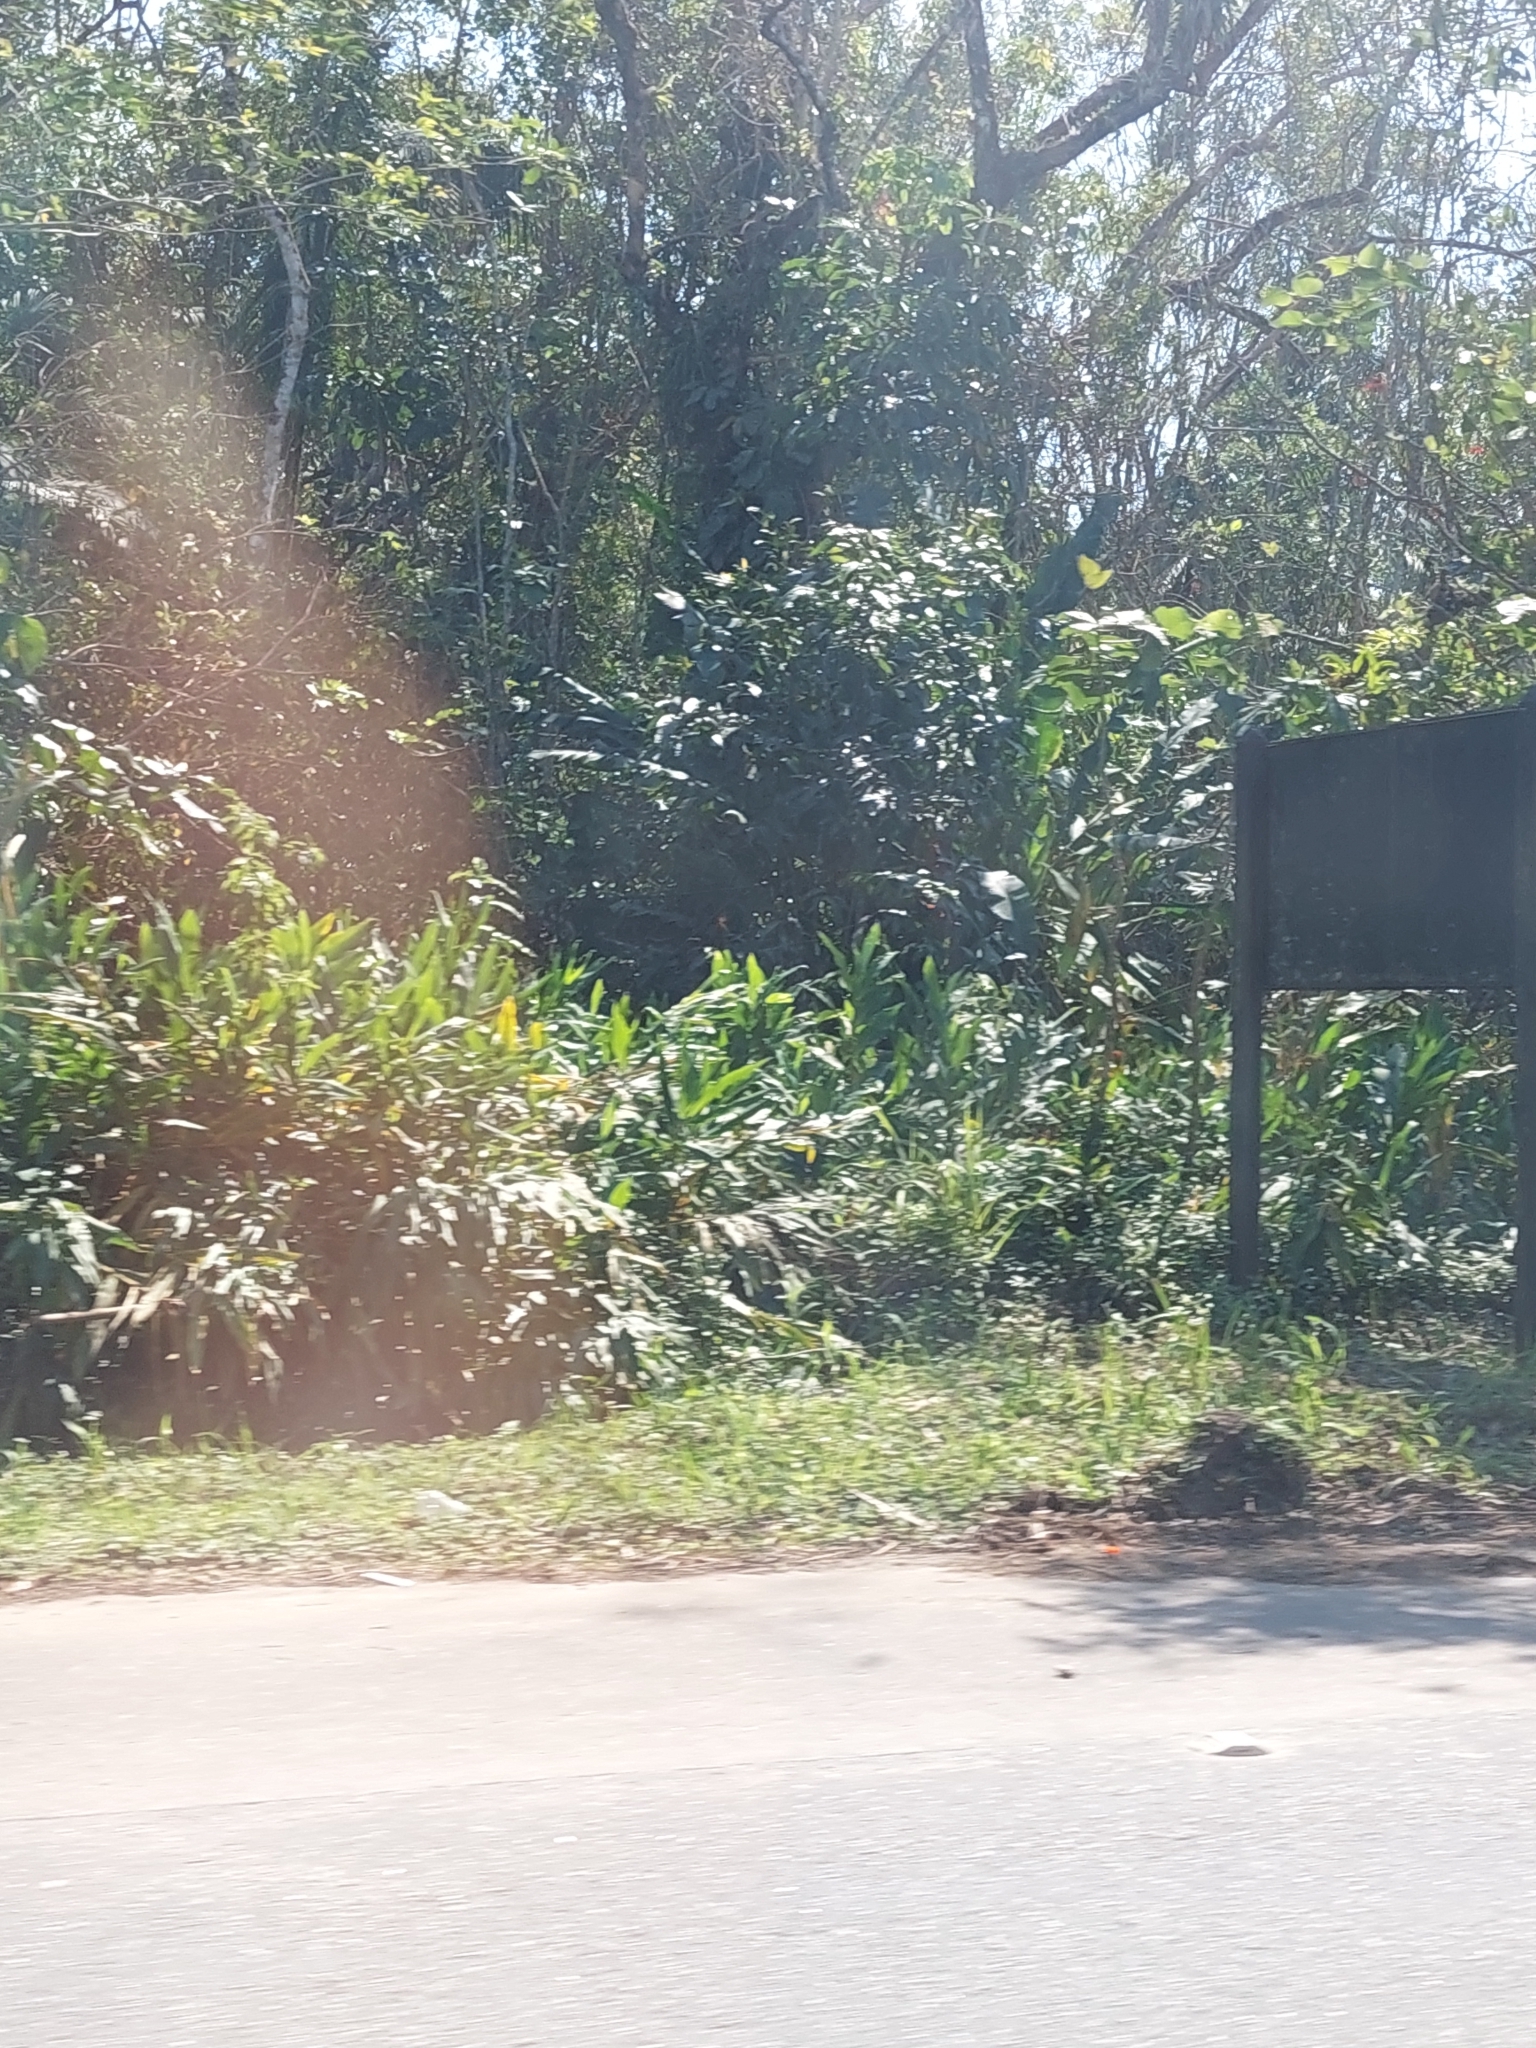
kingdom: Plantae
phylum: Tracheophyta
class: Liliopsida
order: Zingiberales
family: Zingiberaceae
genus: Hedychium
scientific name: Hedychium coronarium
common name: White garland-lily
